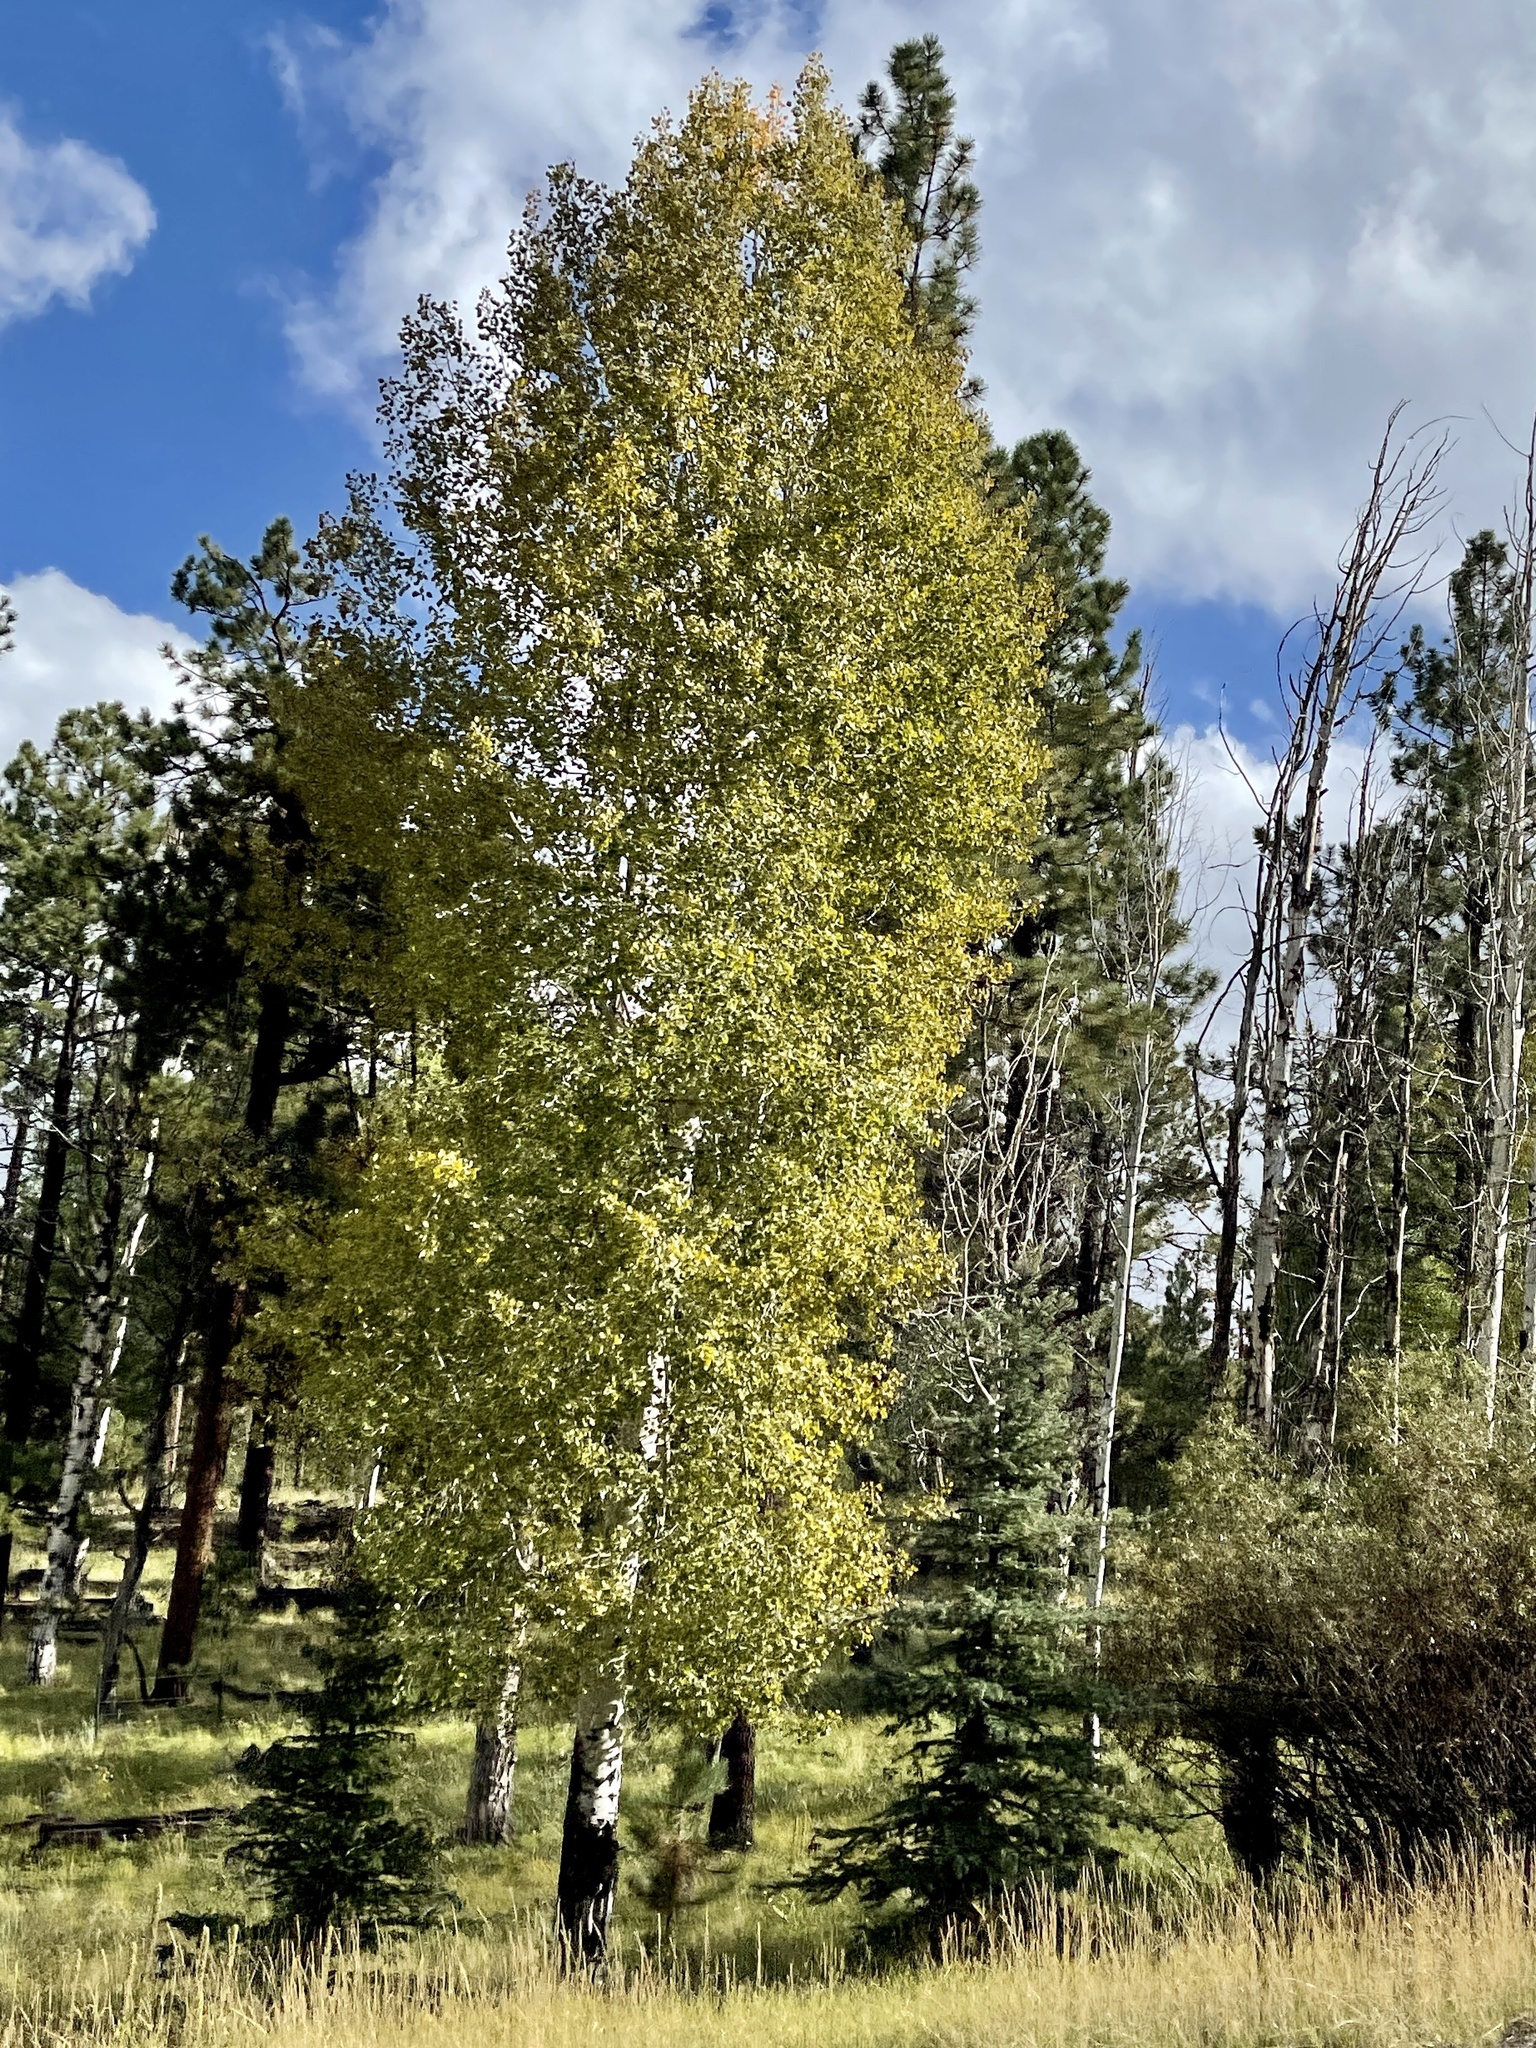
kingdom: Plantae
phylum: Tracheophyta
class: Magnoliopsida
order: Malpighiales
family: Salicaceae
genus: Populus
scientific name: Populus tremuloides
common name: Quaking aspen
